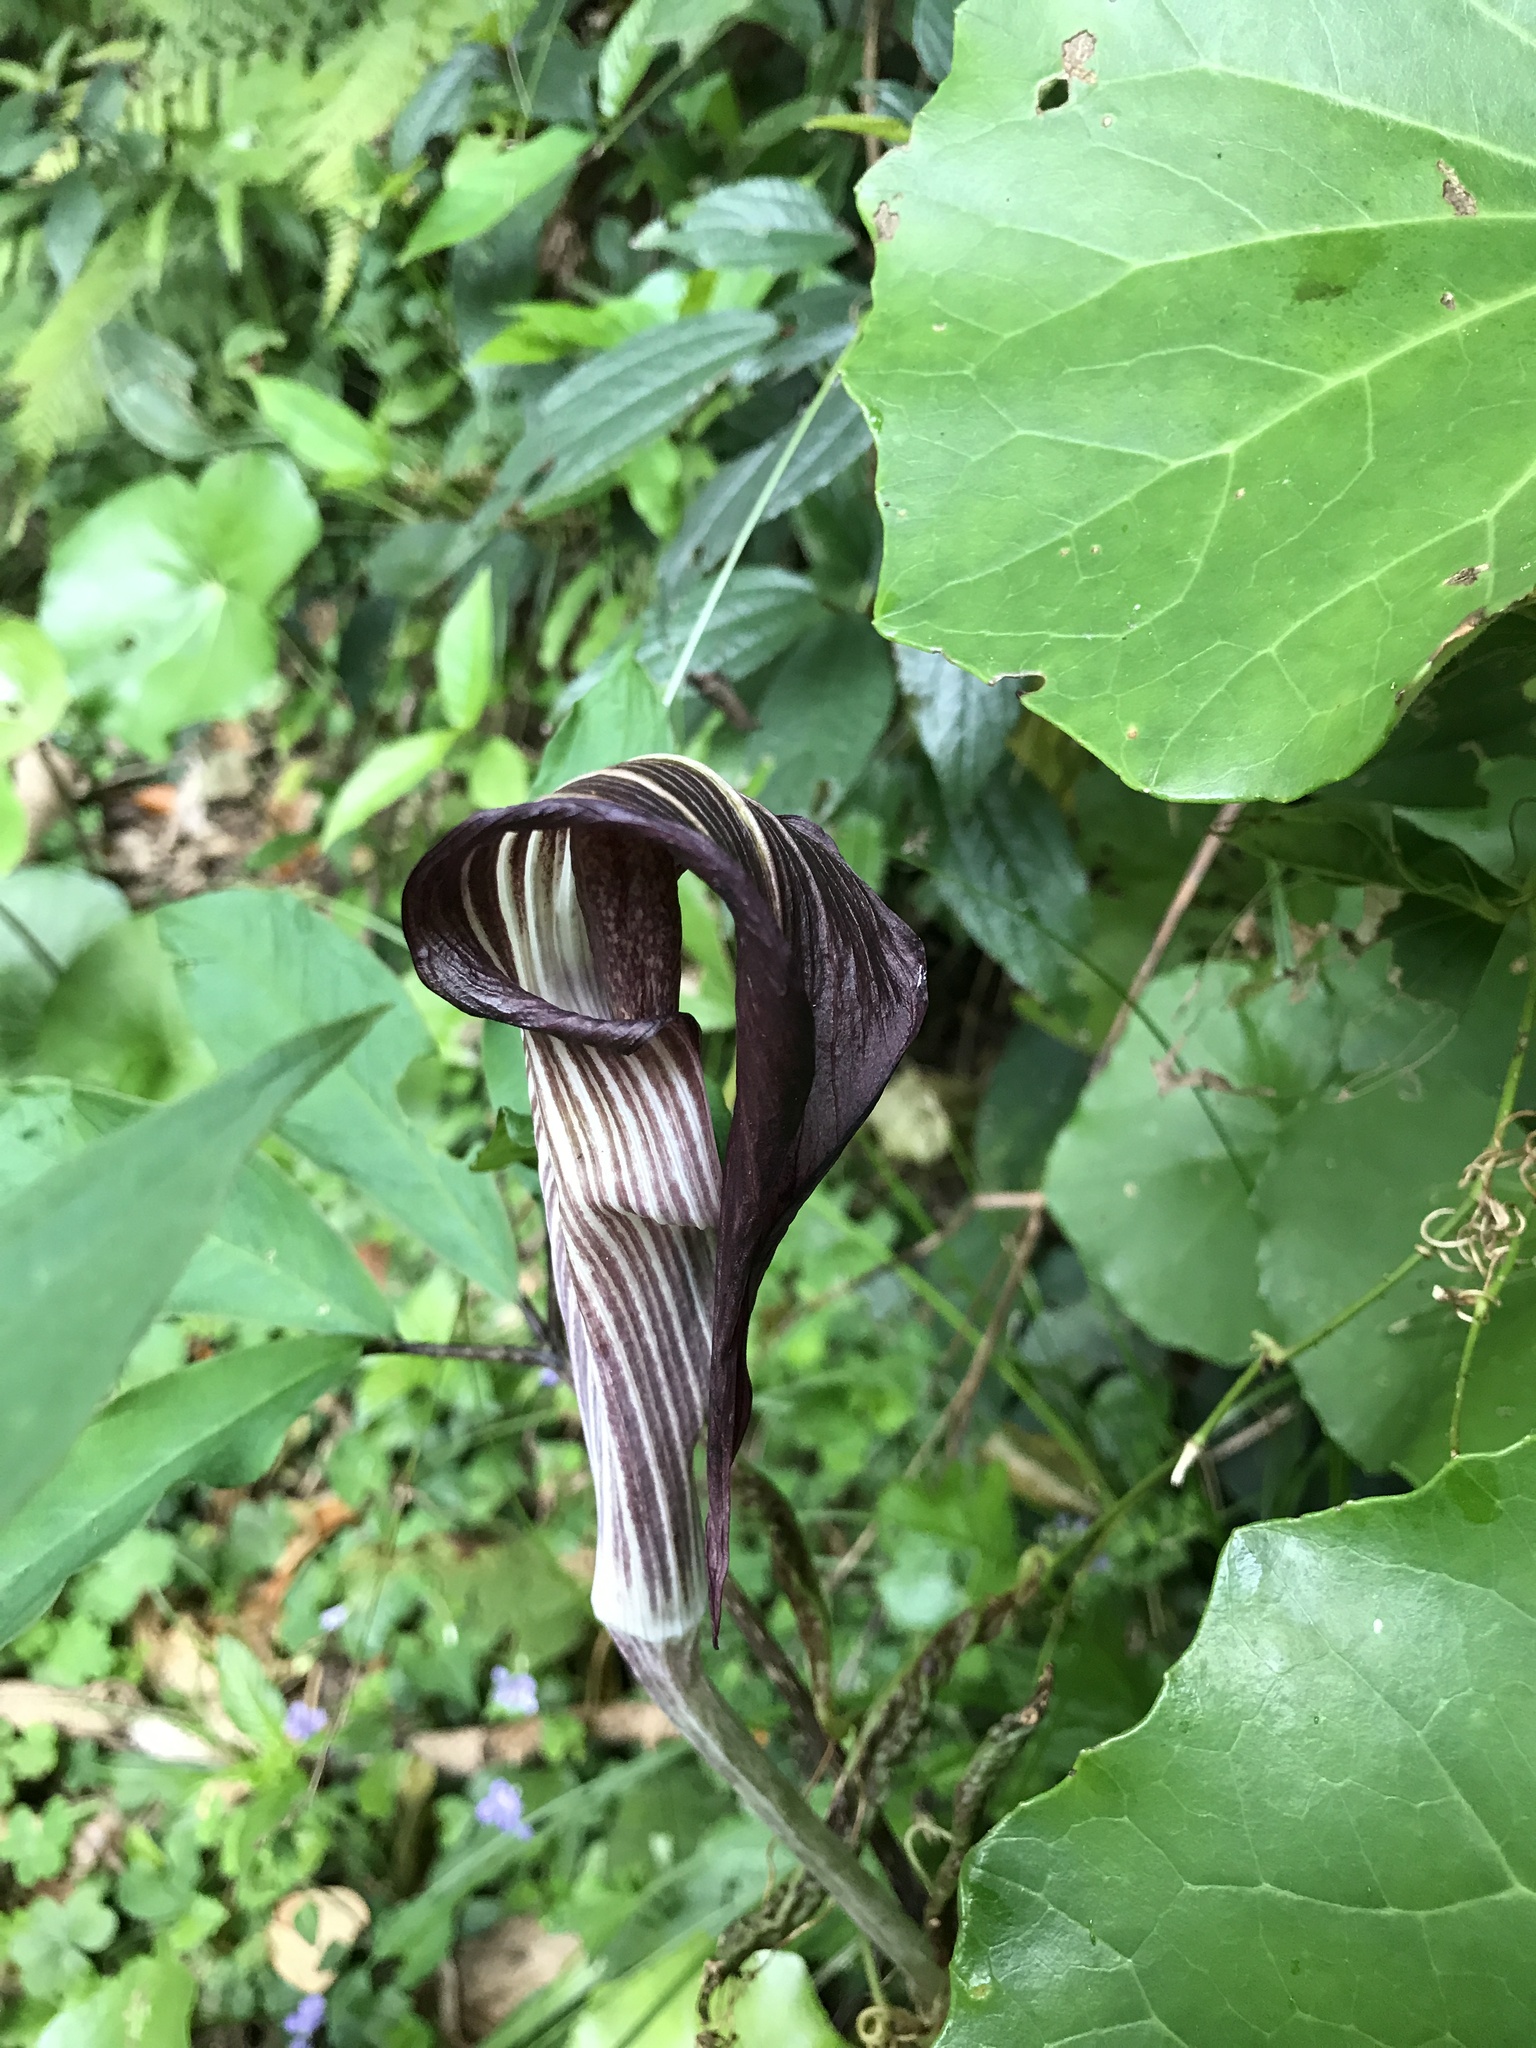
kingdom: Plantae
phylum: Tracheophyta
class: Liliopsida
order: Alismatales
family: Araceae
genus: Arisaema
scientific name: Arisaema serratum
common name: Japanese arisaema
